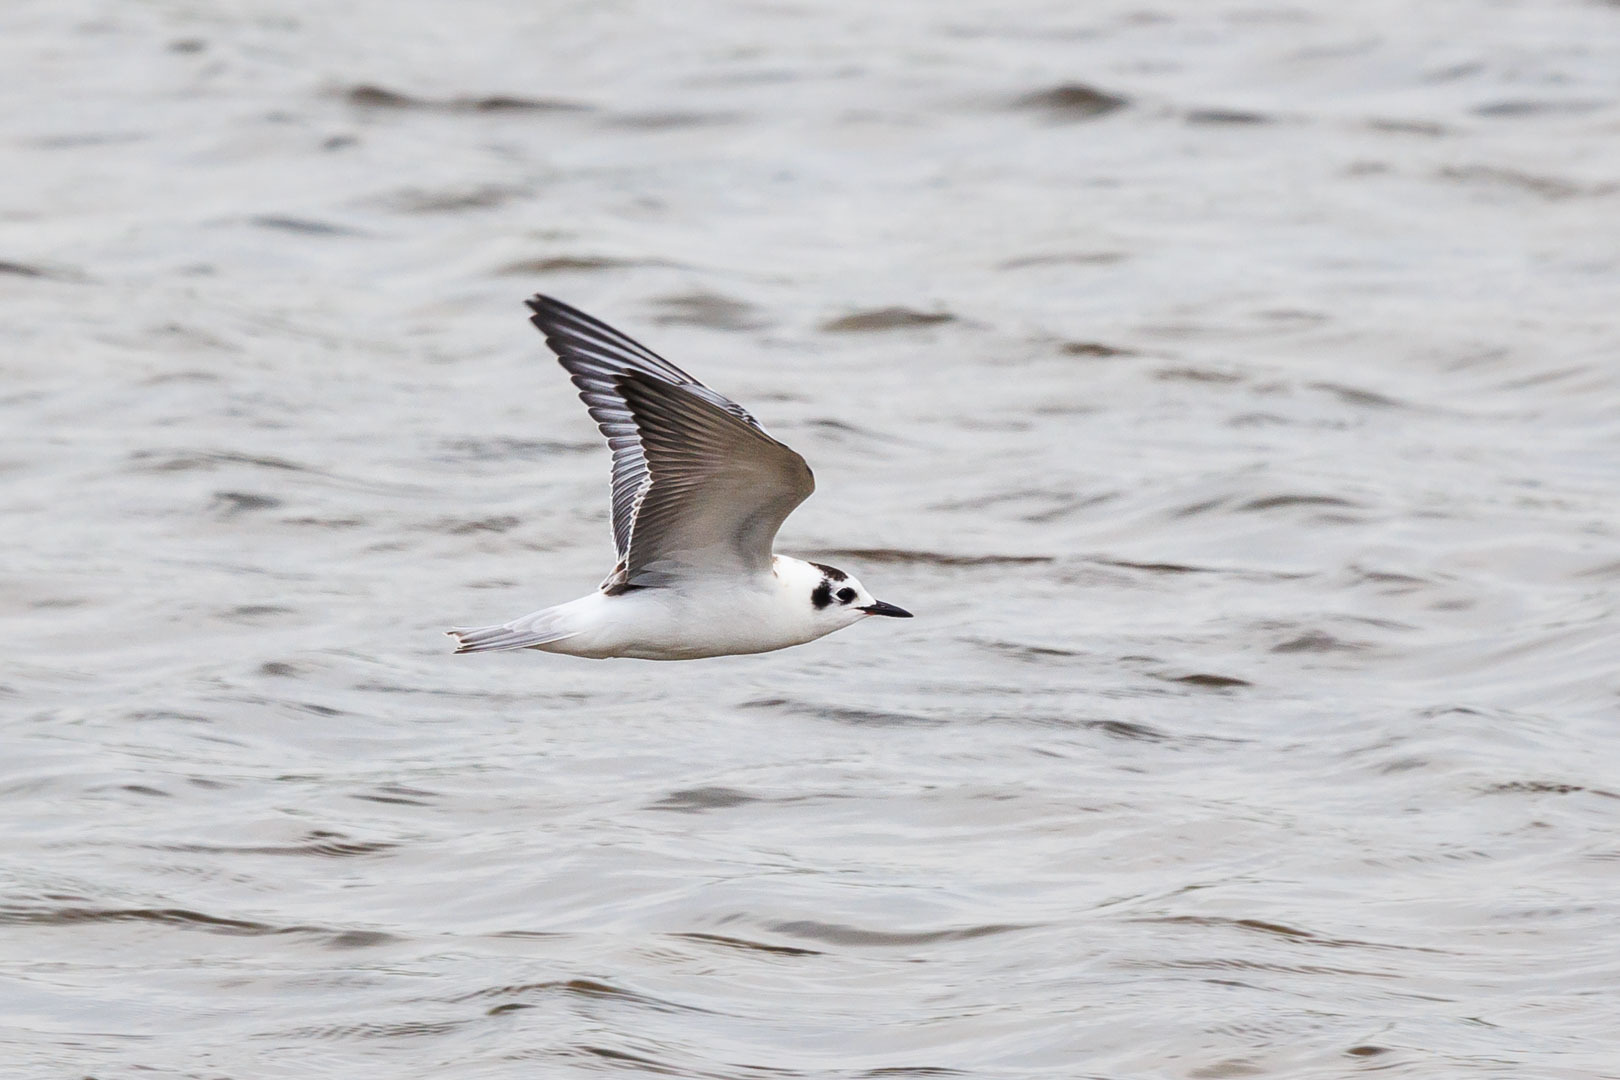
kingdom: Animalia
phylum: Chordata
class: Aves
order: Charadriiformes
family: Laridae
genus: Chlidonias
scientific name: Chlidonias leucopterus
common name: White-winged tern
